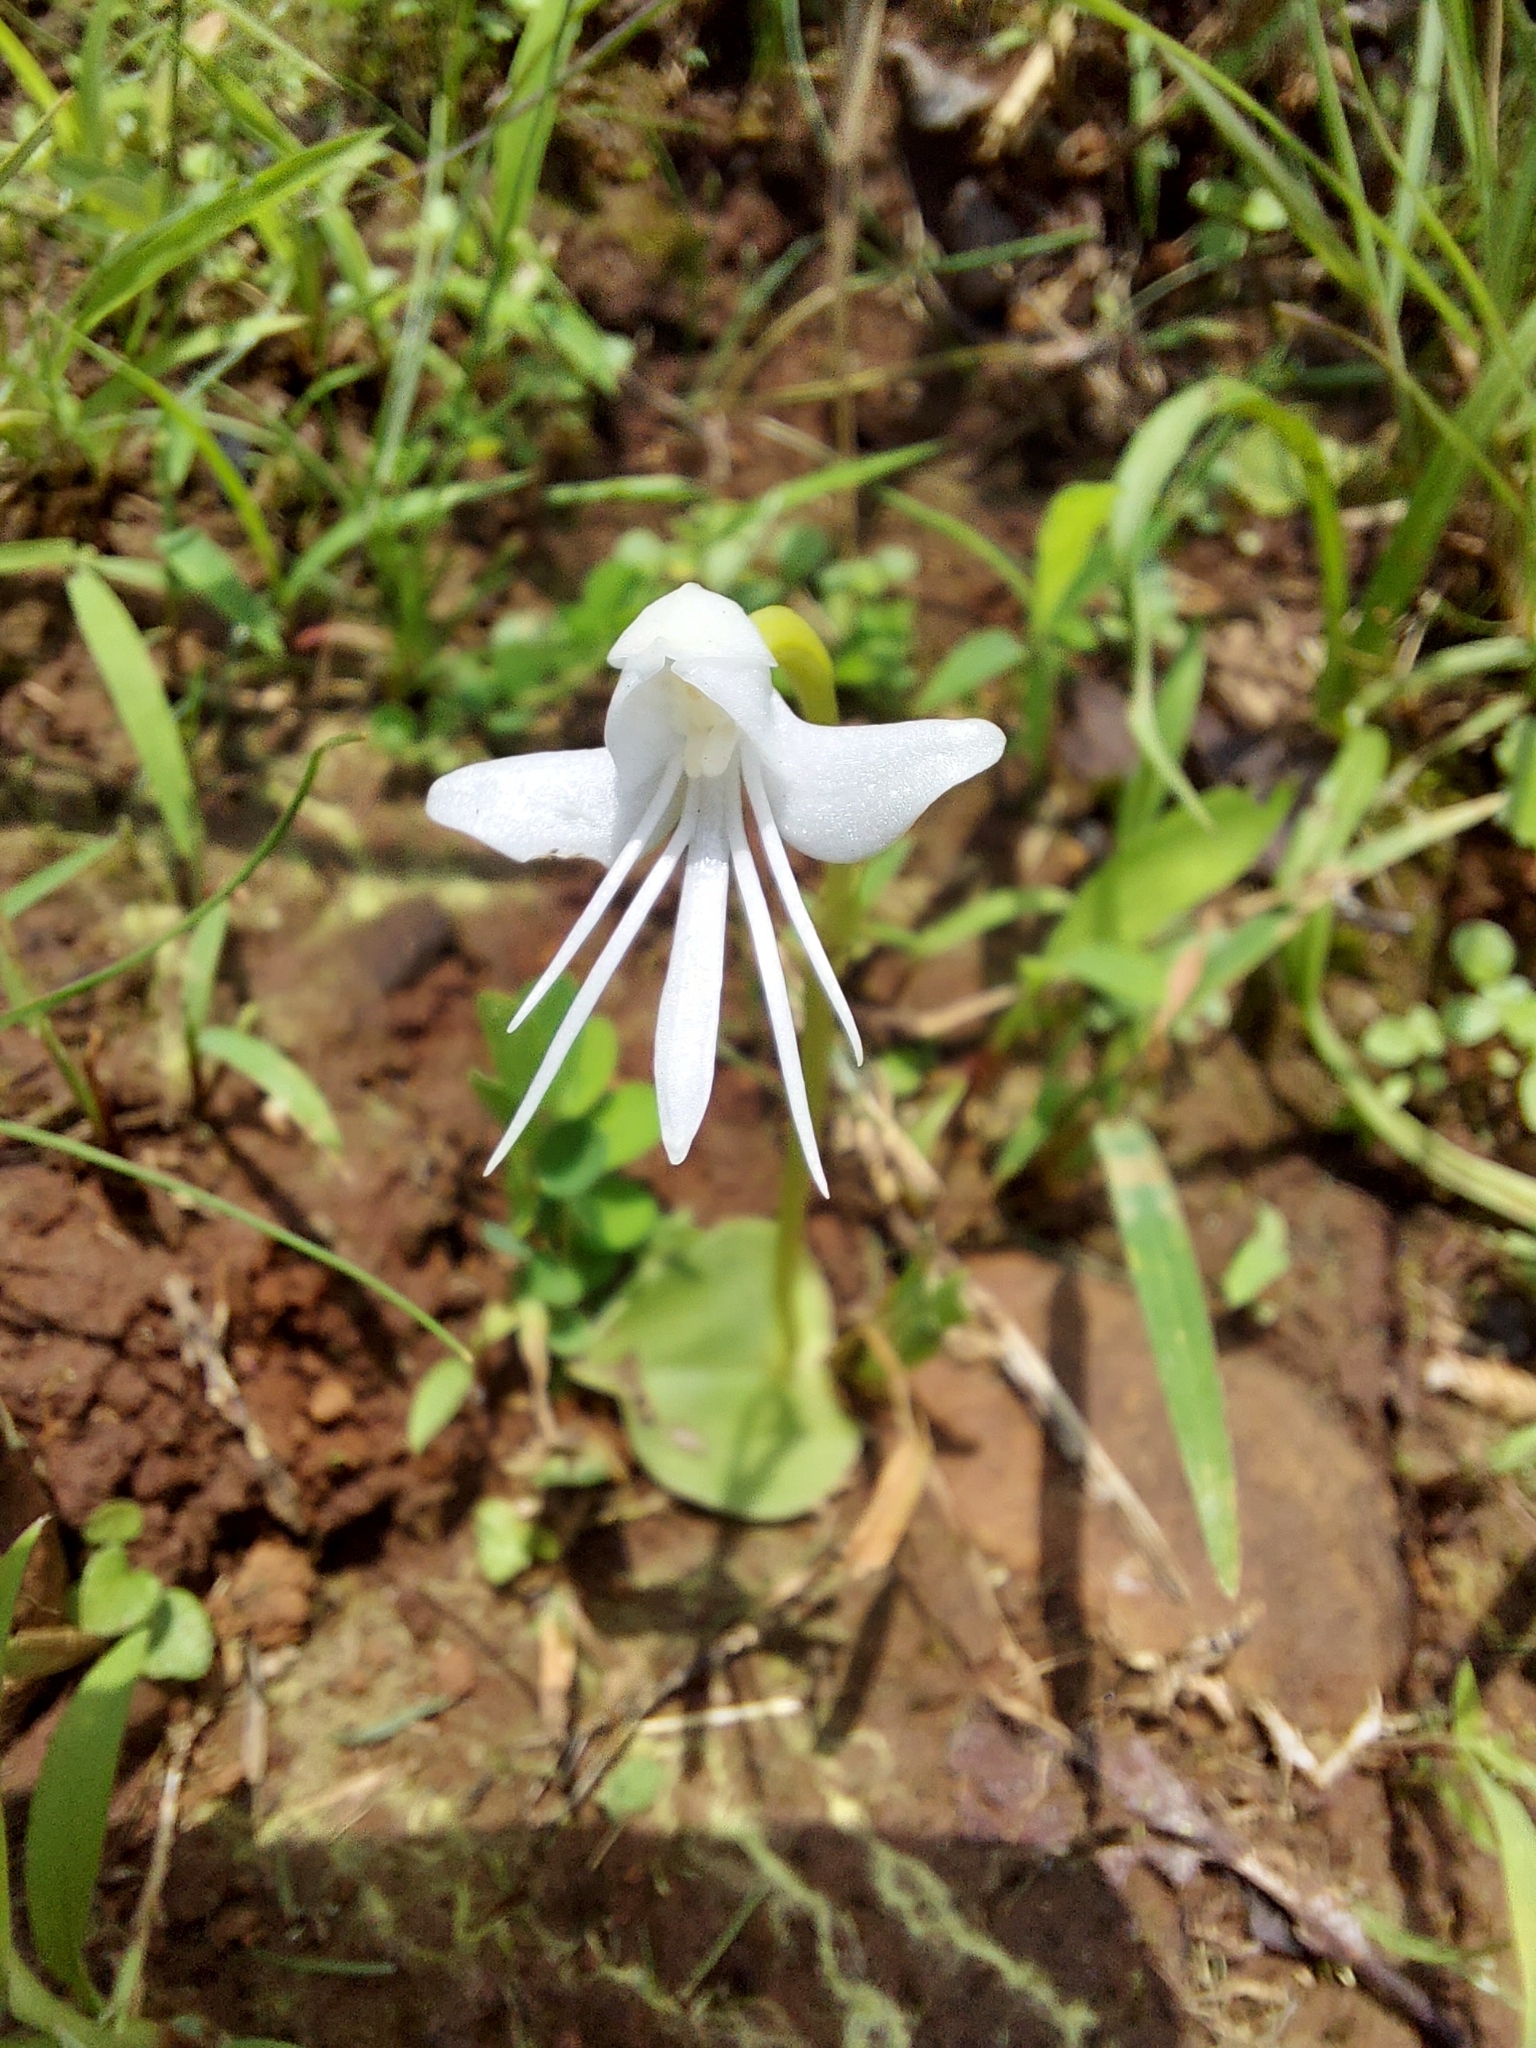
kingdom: Plantae
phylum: Tracheophyta
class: Liliopsida
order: Asparagales
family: Orchidaceae
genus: Habenaria
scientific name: Habenaria grandifloriformis
